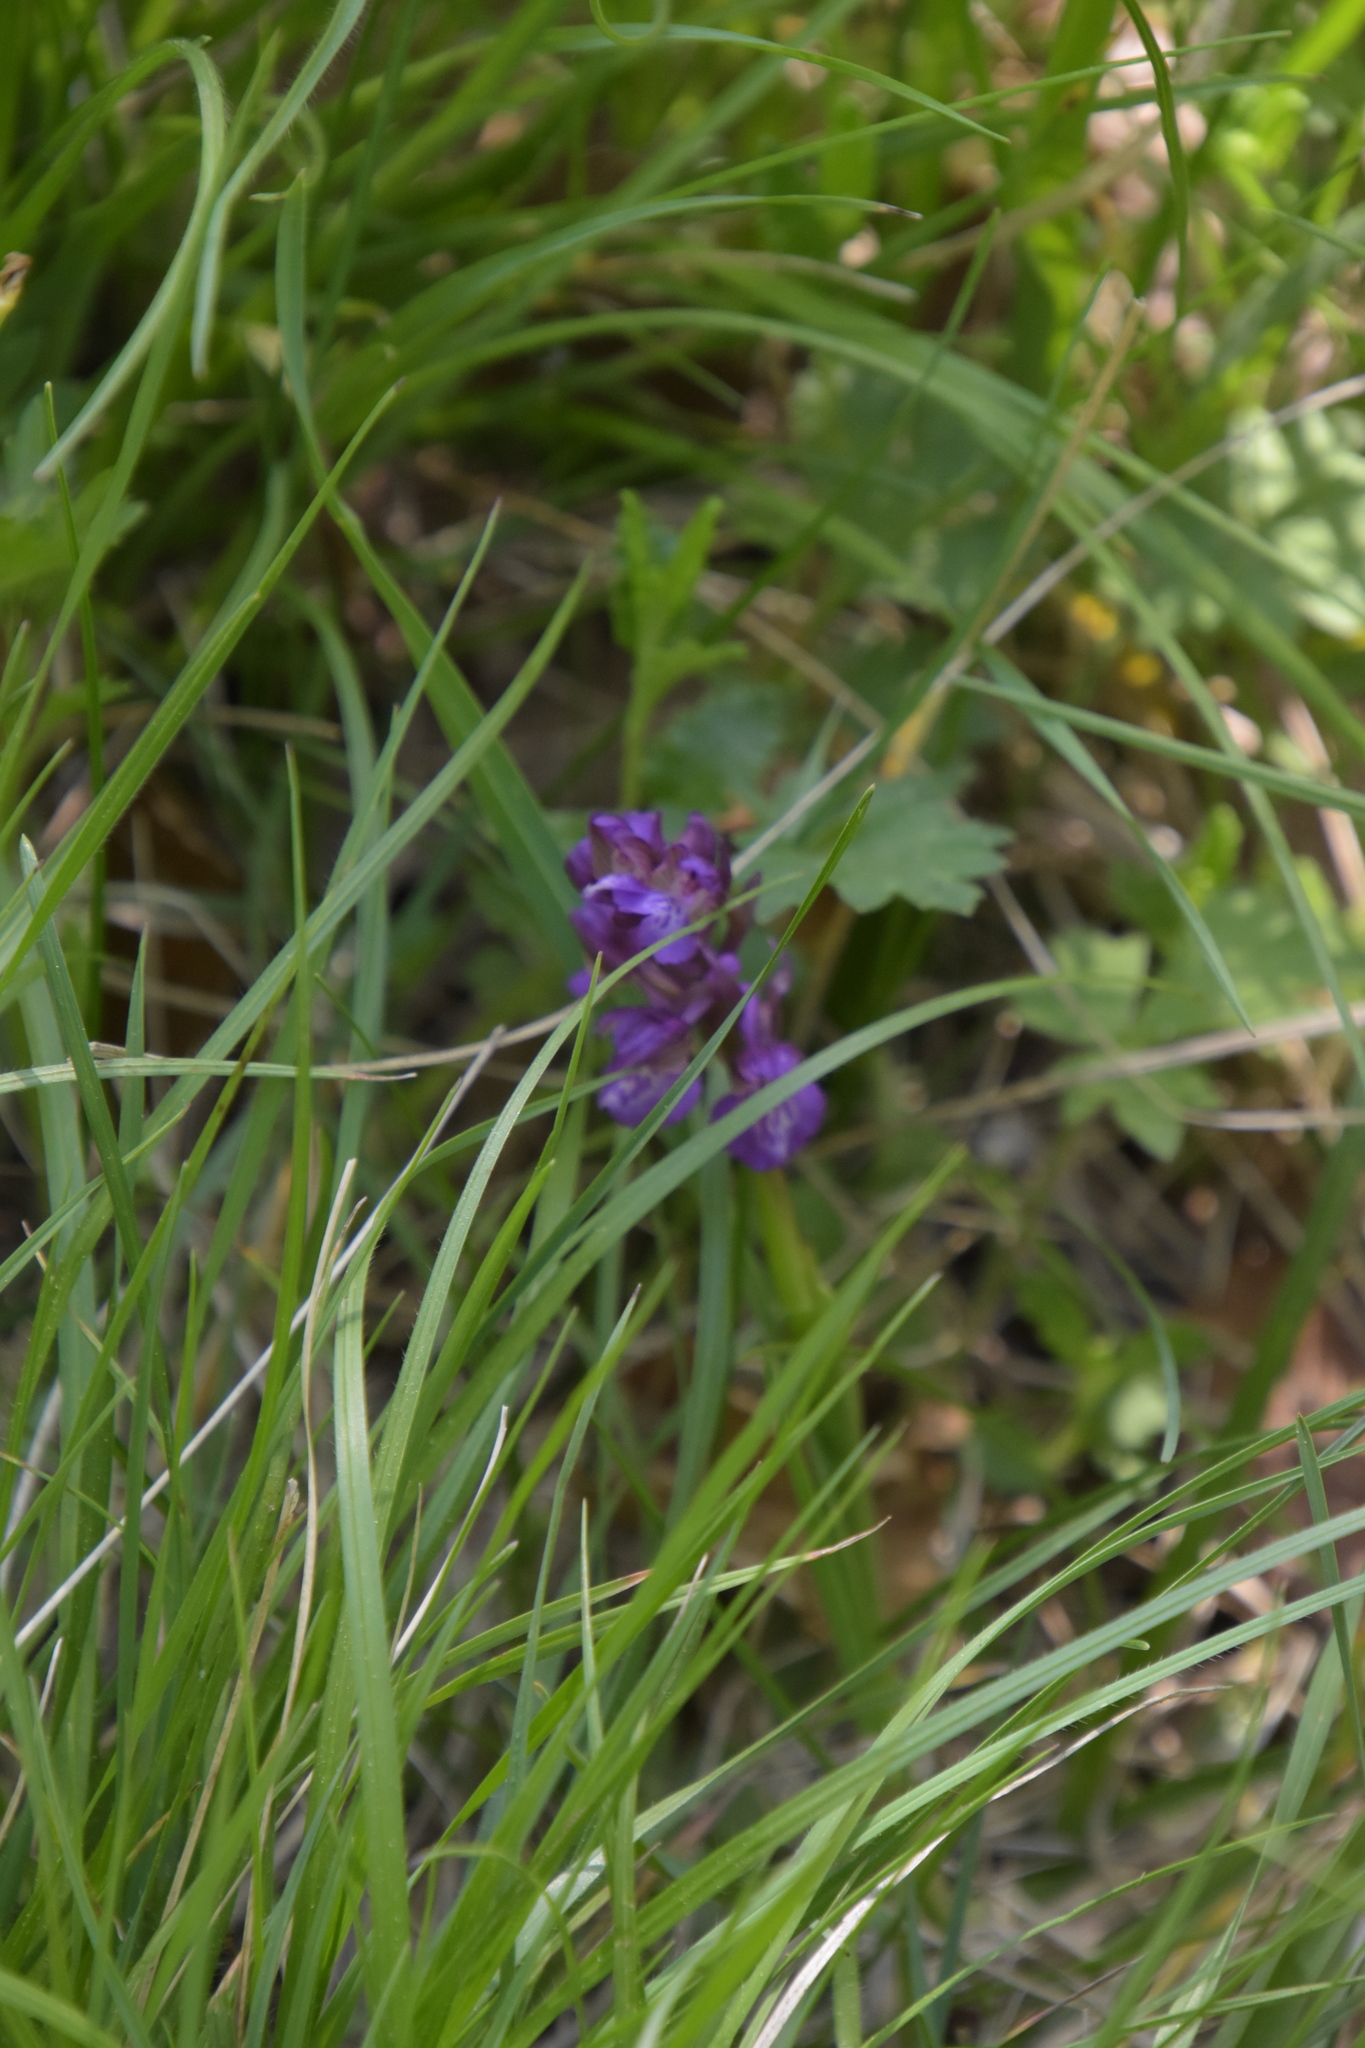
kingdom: Plantae
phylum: Tracheophyta
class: Liliopsida
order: Asparagales
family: Orchidaceae
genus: Anacamptis
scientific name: Anacamptis morio
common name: Green-winged orchid
